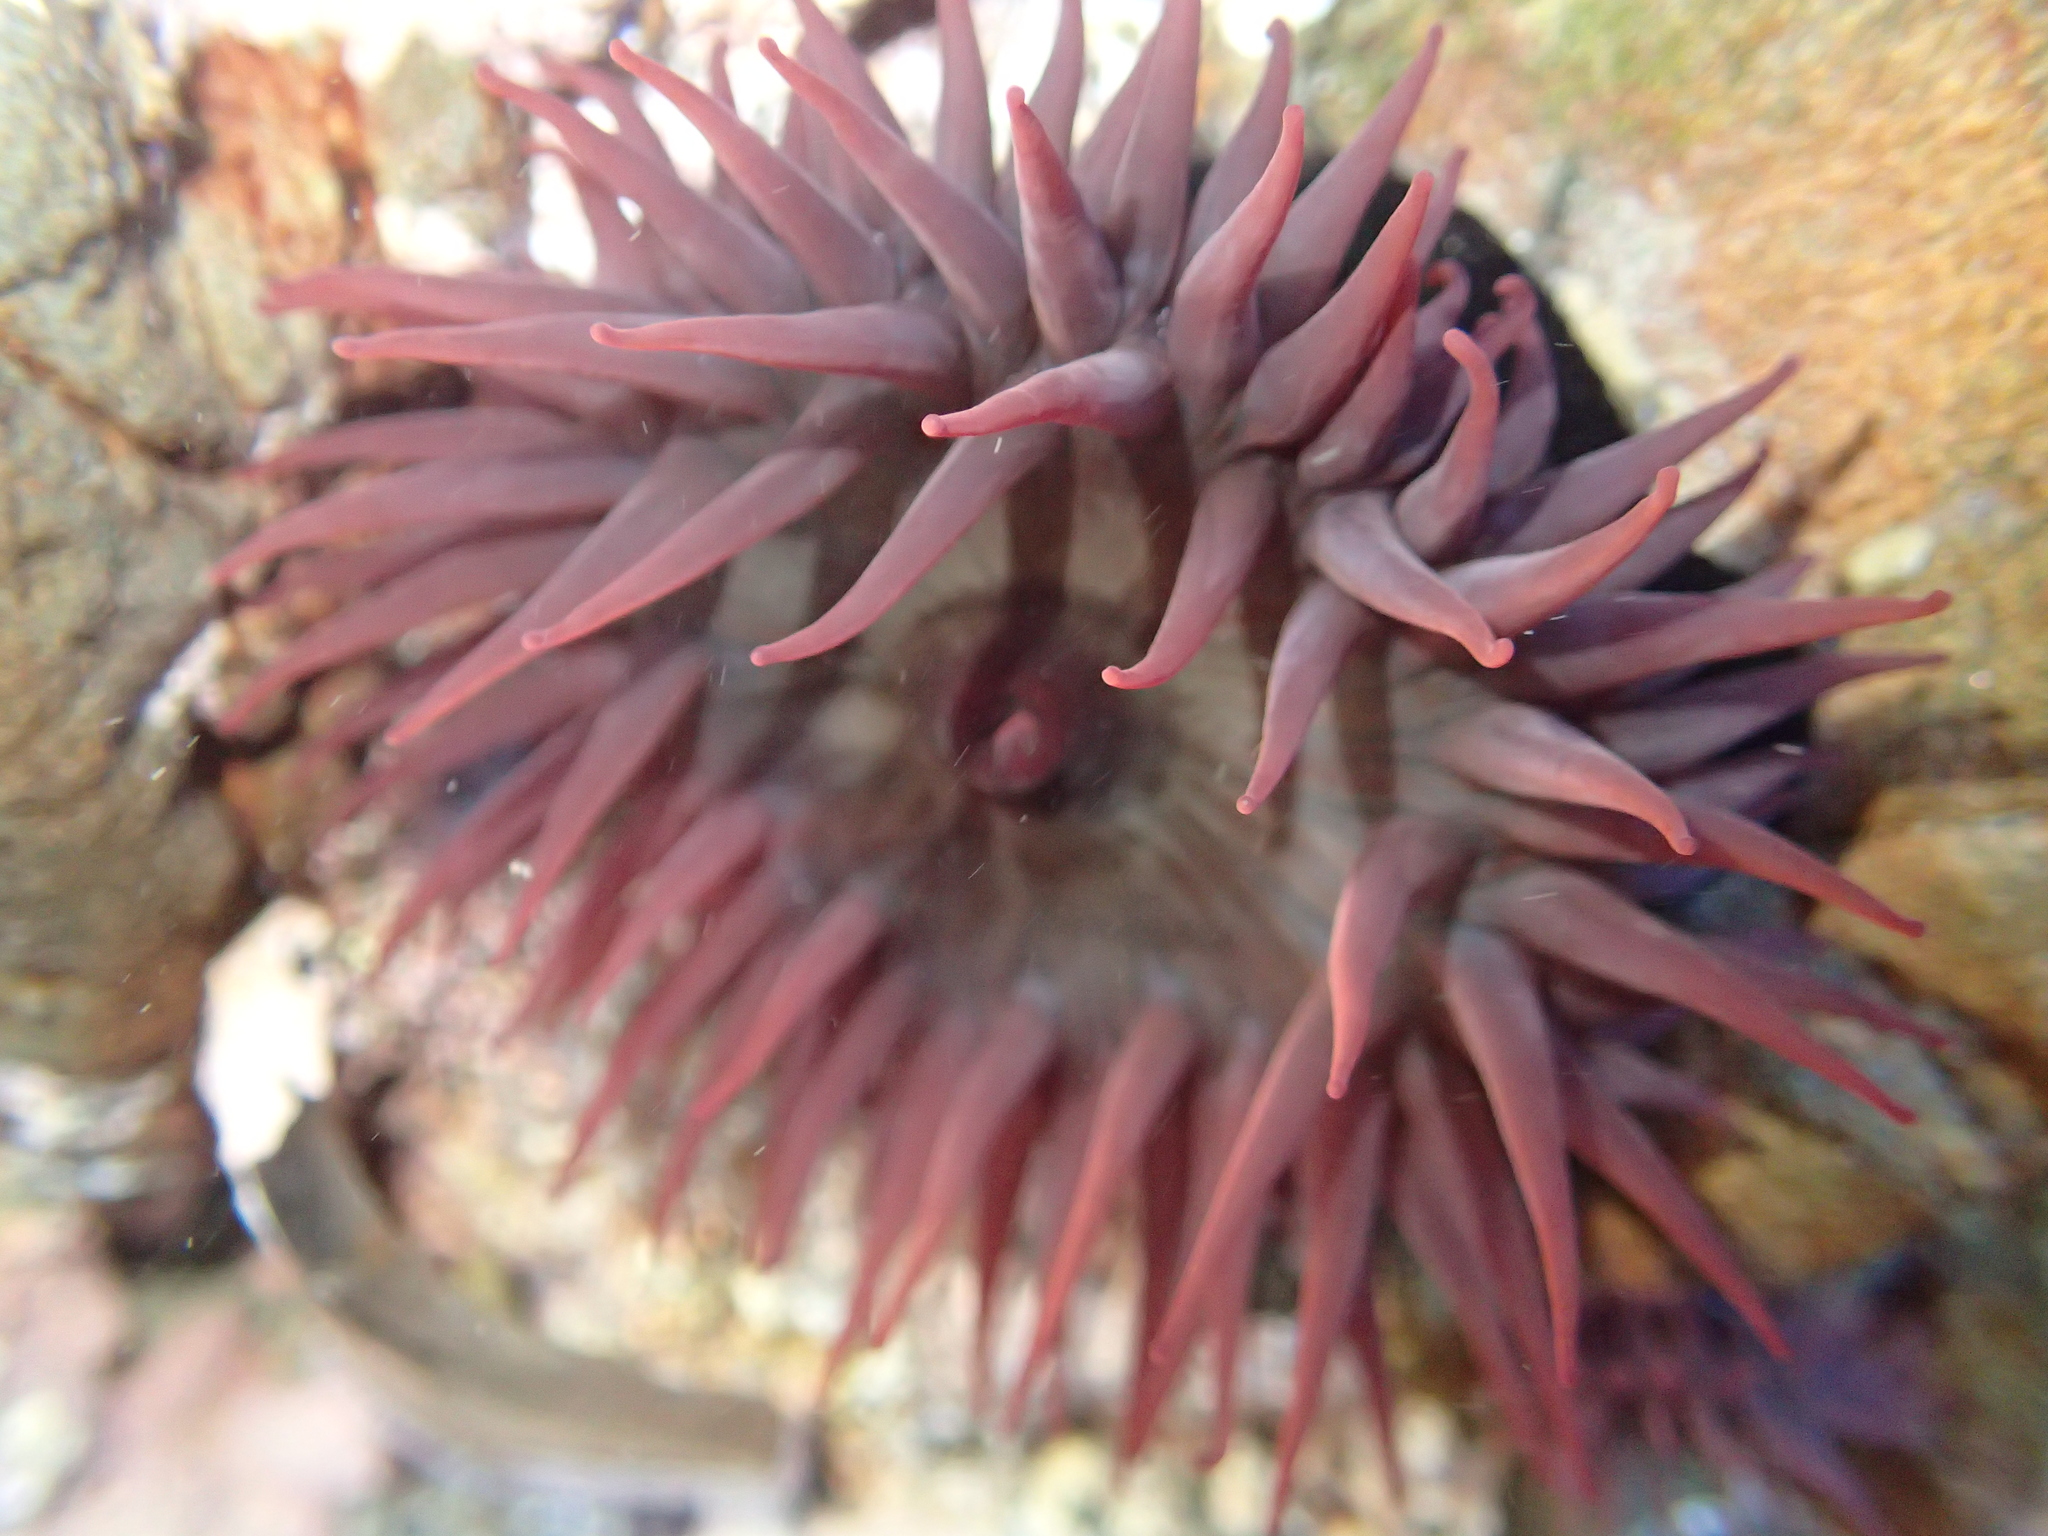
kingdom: Animalia
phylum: Cnidaria
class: Anthozoa
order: Actiniaria
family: Actiniidae
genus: Actinia
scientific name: Actinia tenebrosa
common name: Waratah anemone
